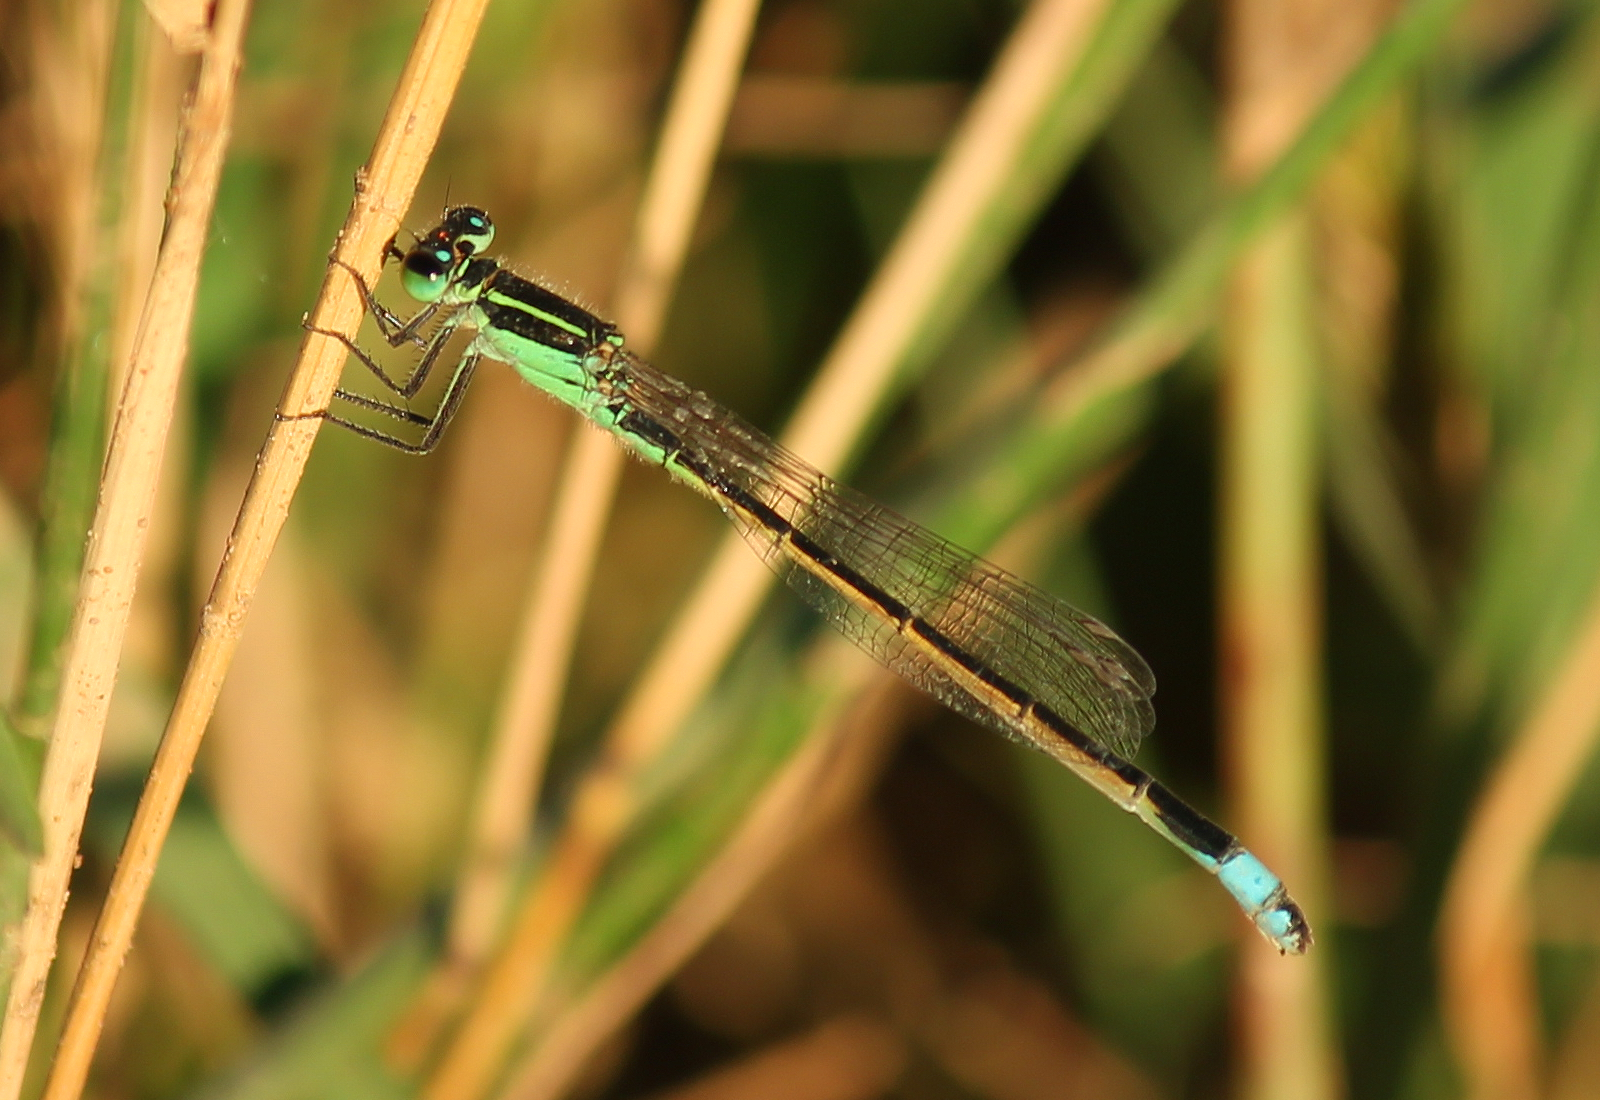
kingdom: Animalia
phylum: Arthropoda
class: Insecta
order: Odonata
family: Coenagrionidae
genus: Ischnura
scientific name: Ischnura ramburii
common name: Rambur's forktail
